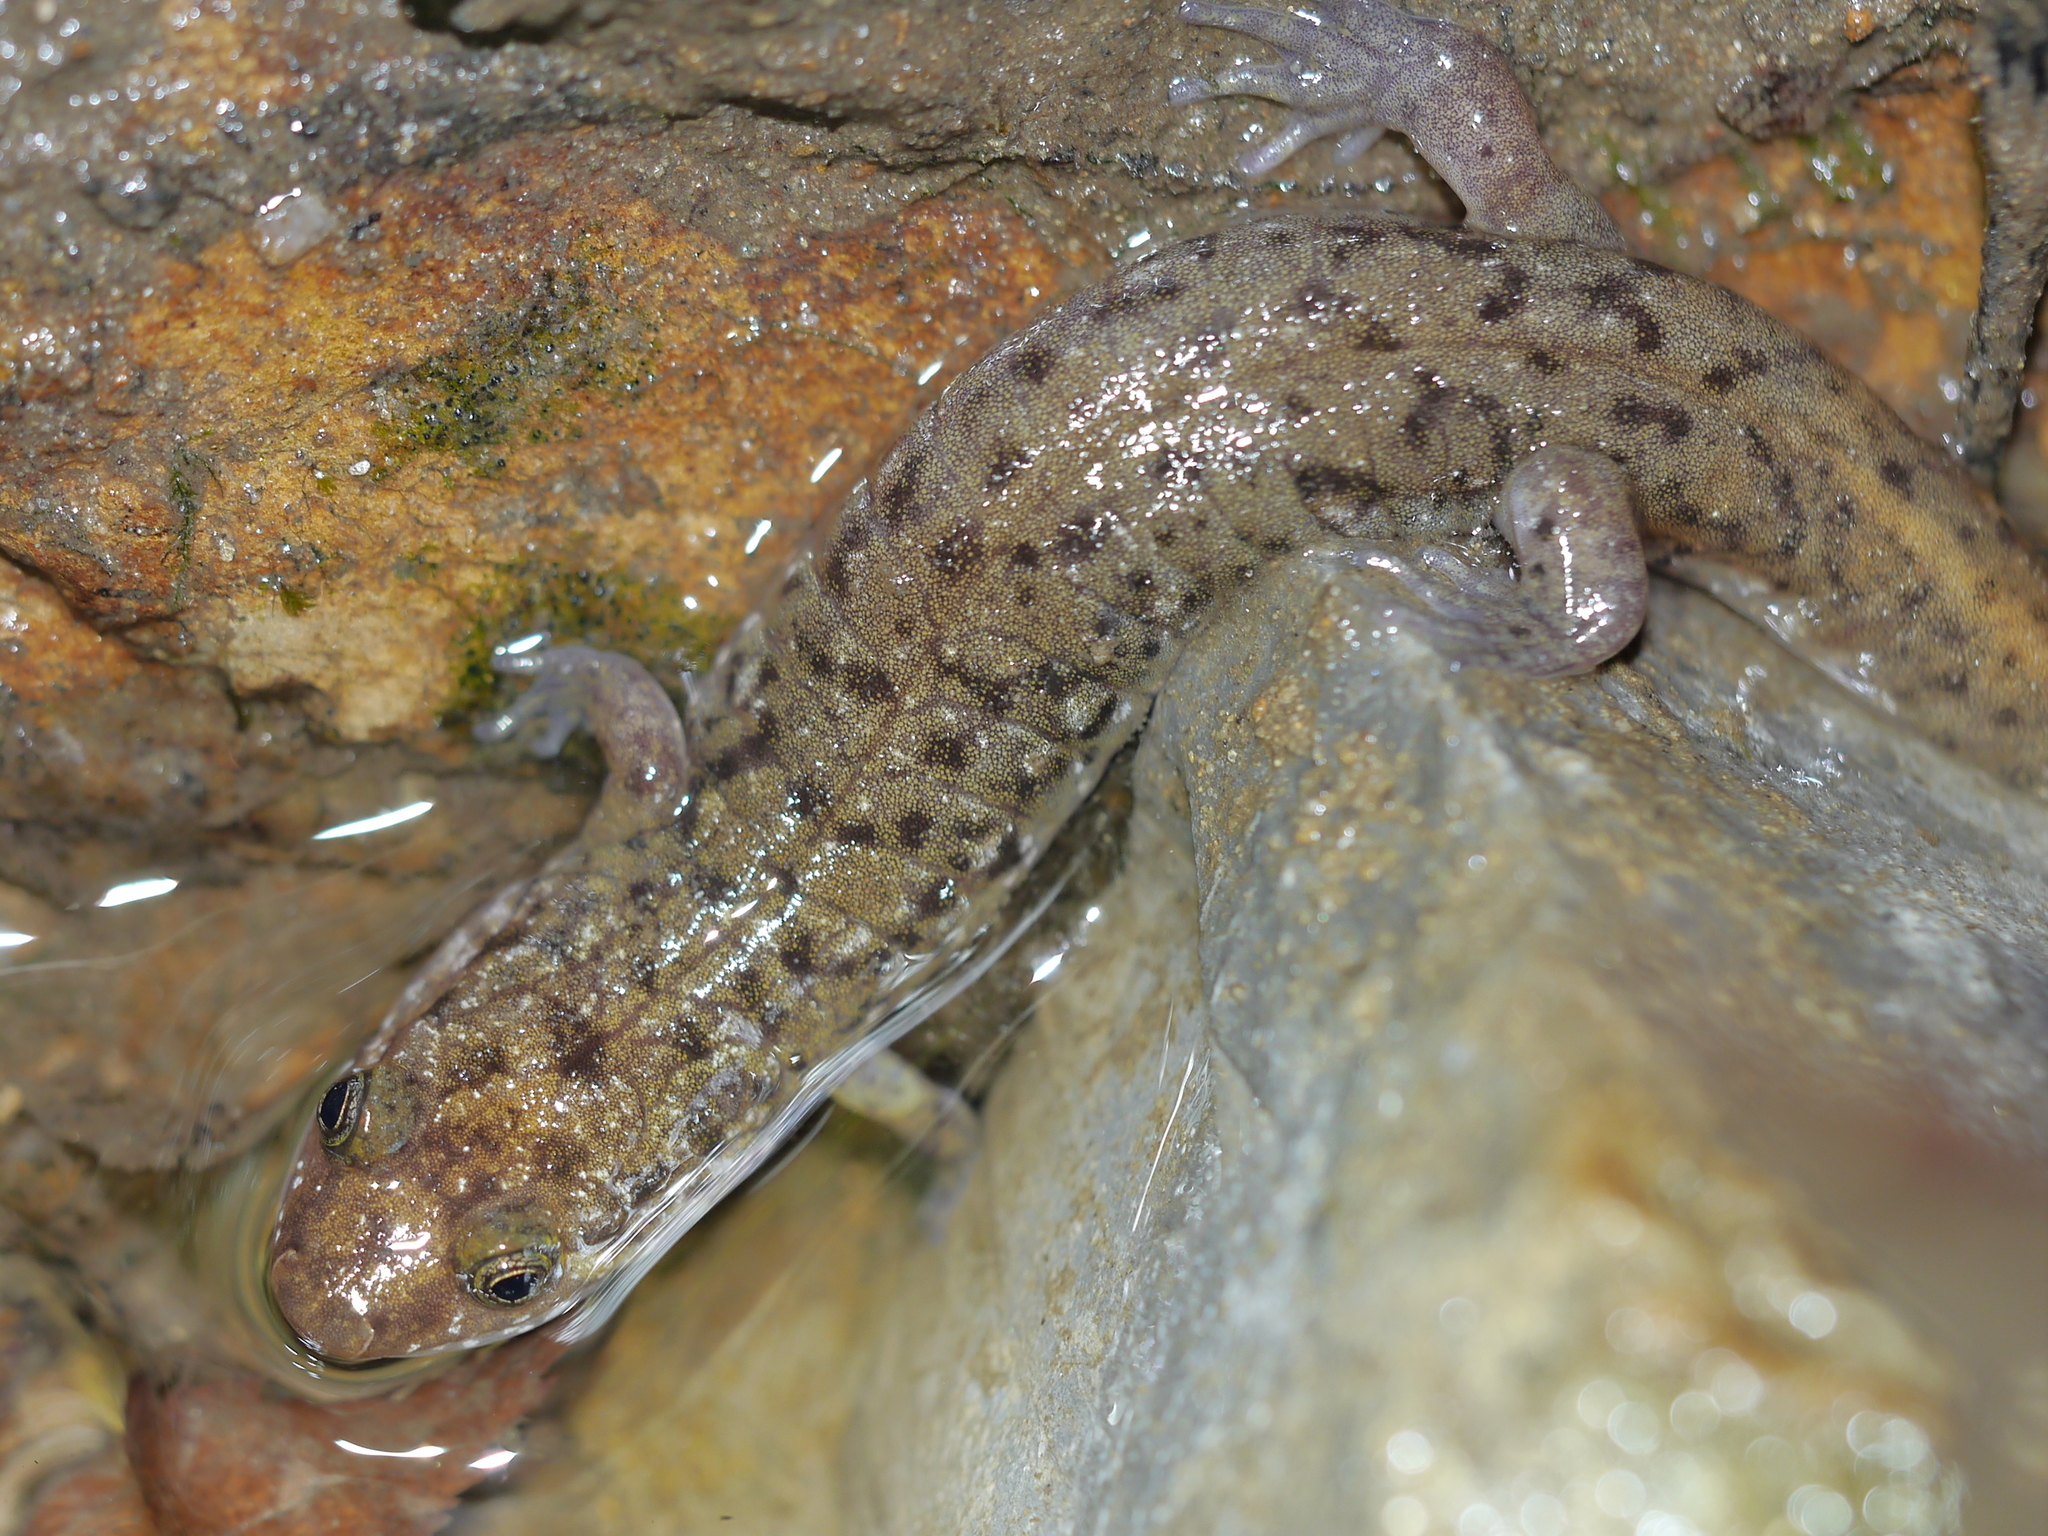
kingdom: Animalia
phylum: Chordata
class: Amphibia
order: Caudata
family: Plethodontidae
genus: Desmognathus
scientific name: Desmognathus monticola
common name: Seal salamander
